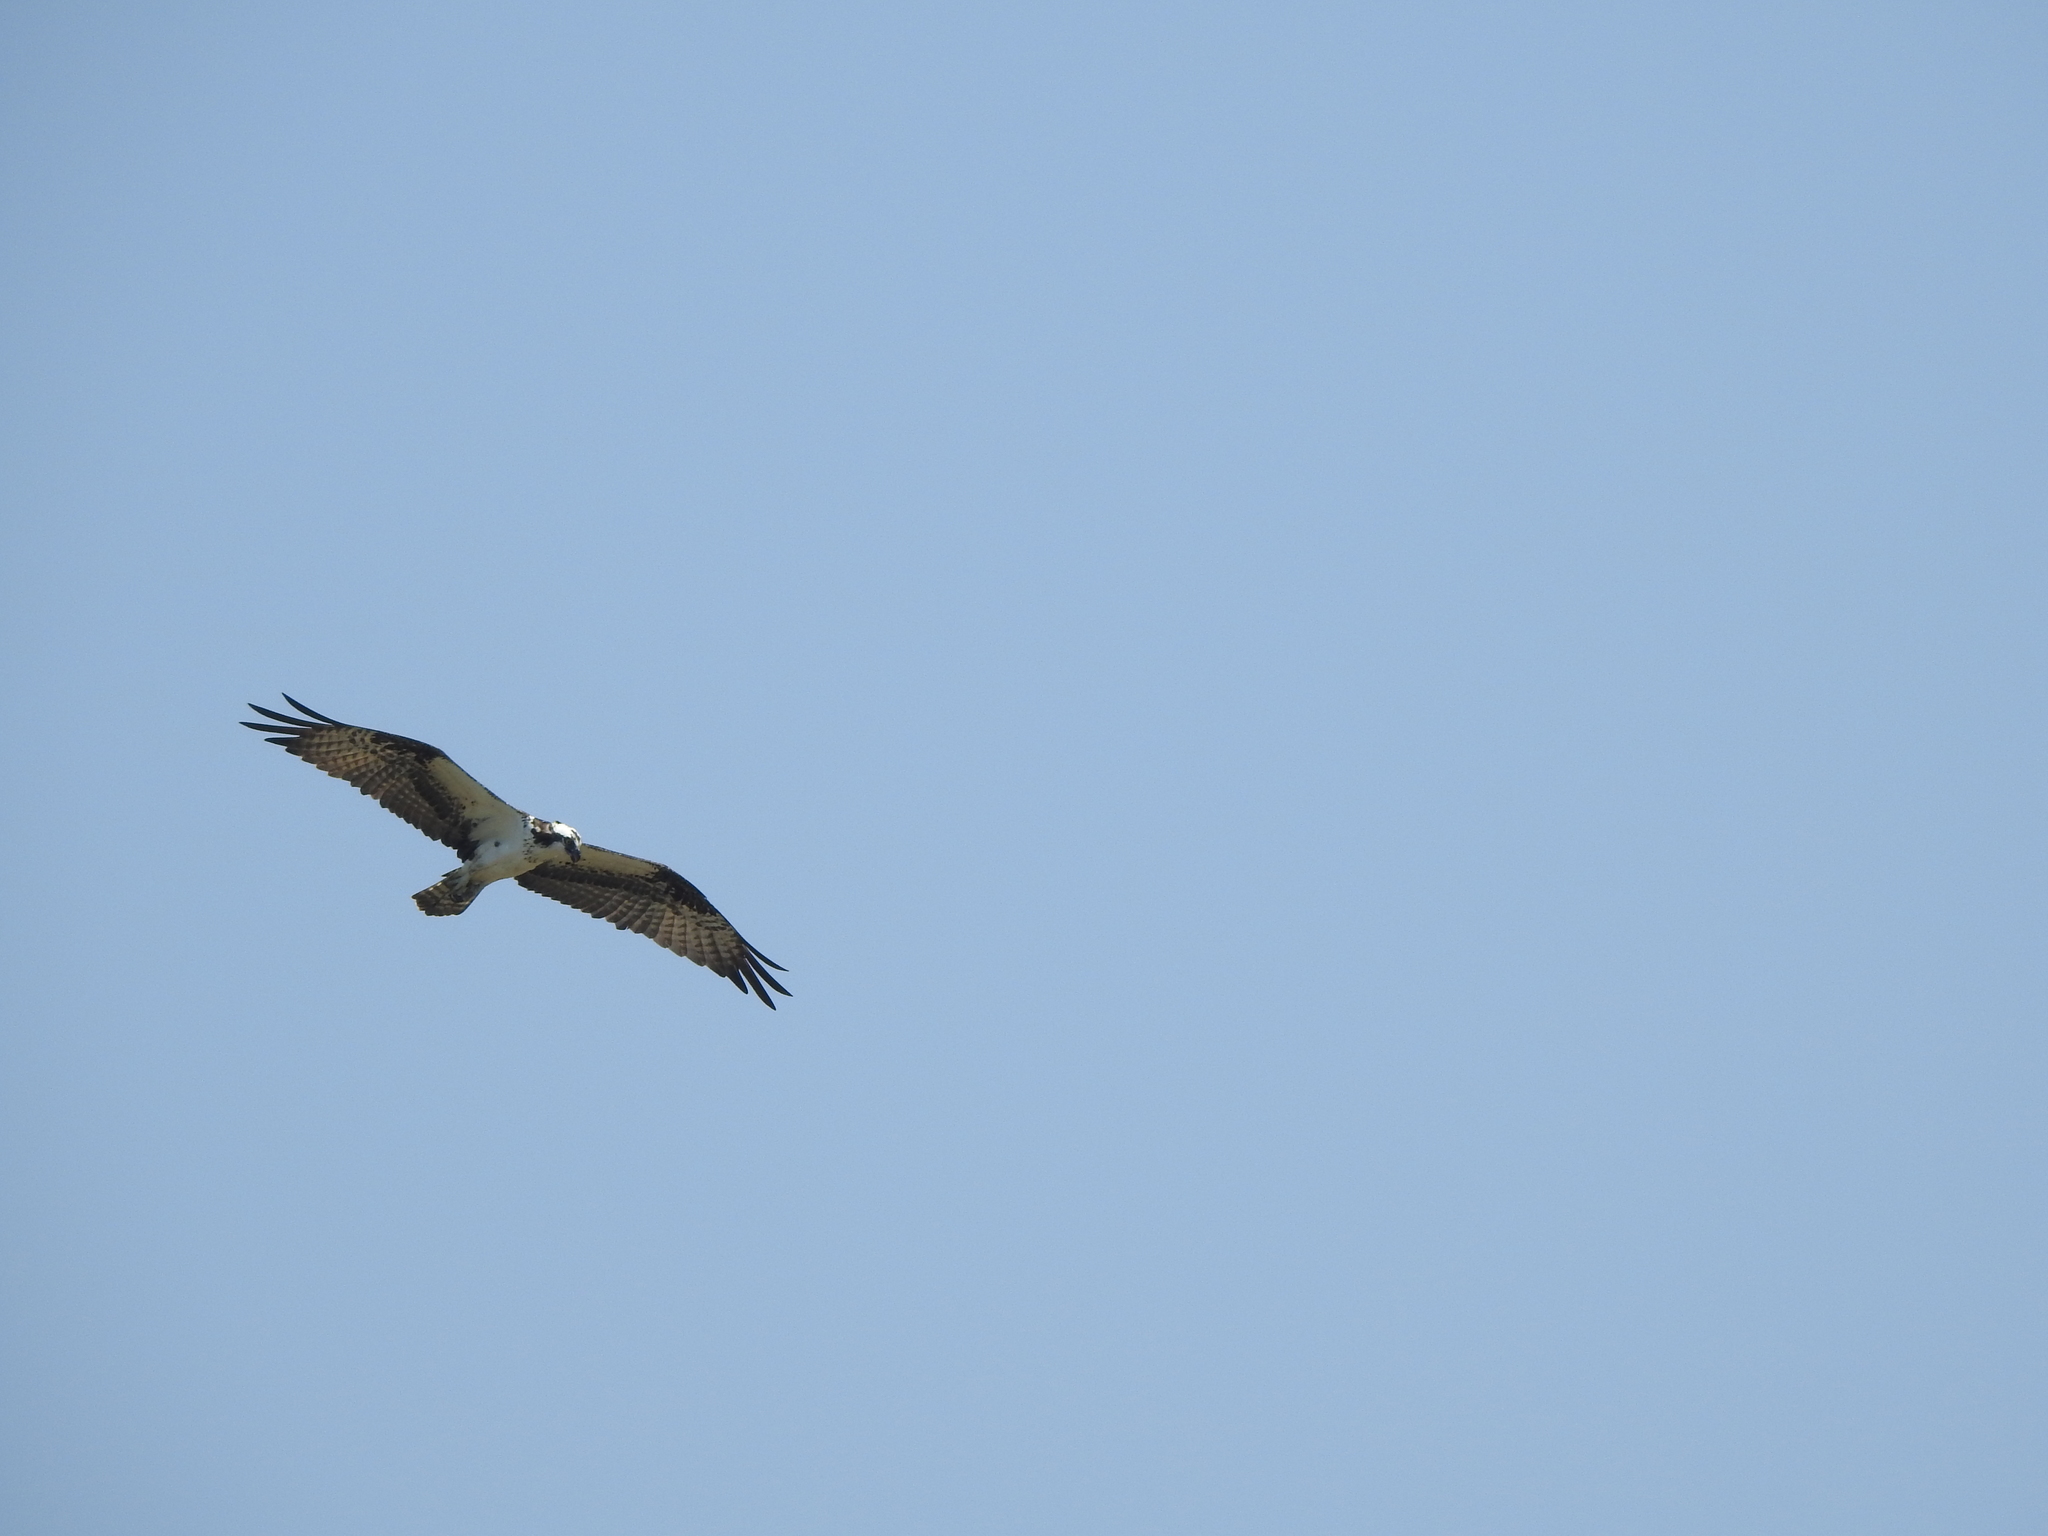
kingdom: Animalia
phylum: Chordata
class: Aves
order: Accipitriformes
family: Pandionidae
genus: Pandion
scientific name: Pandion haliaetus
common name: Osprey
